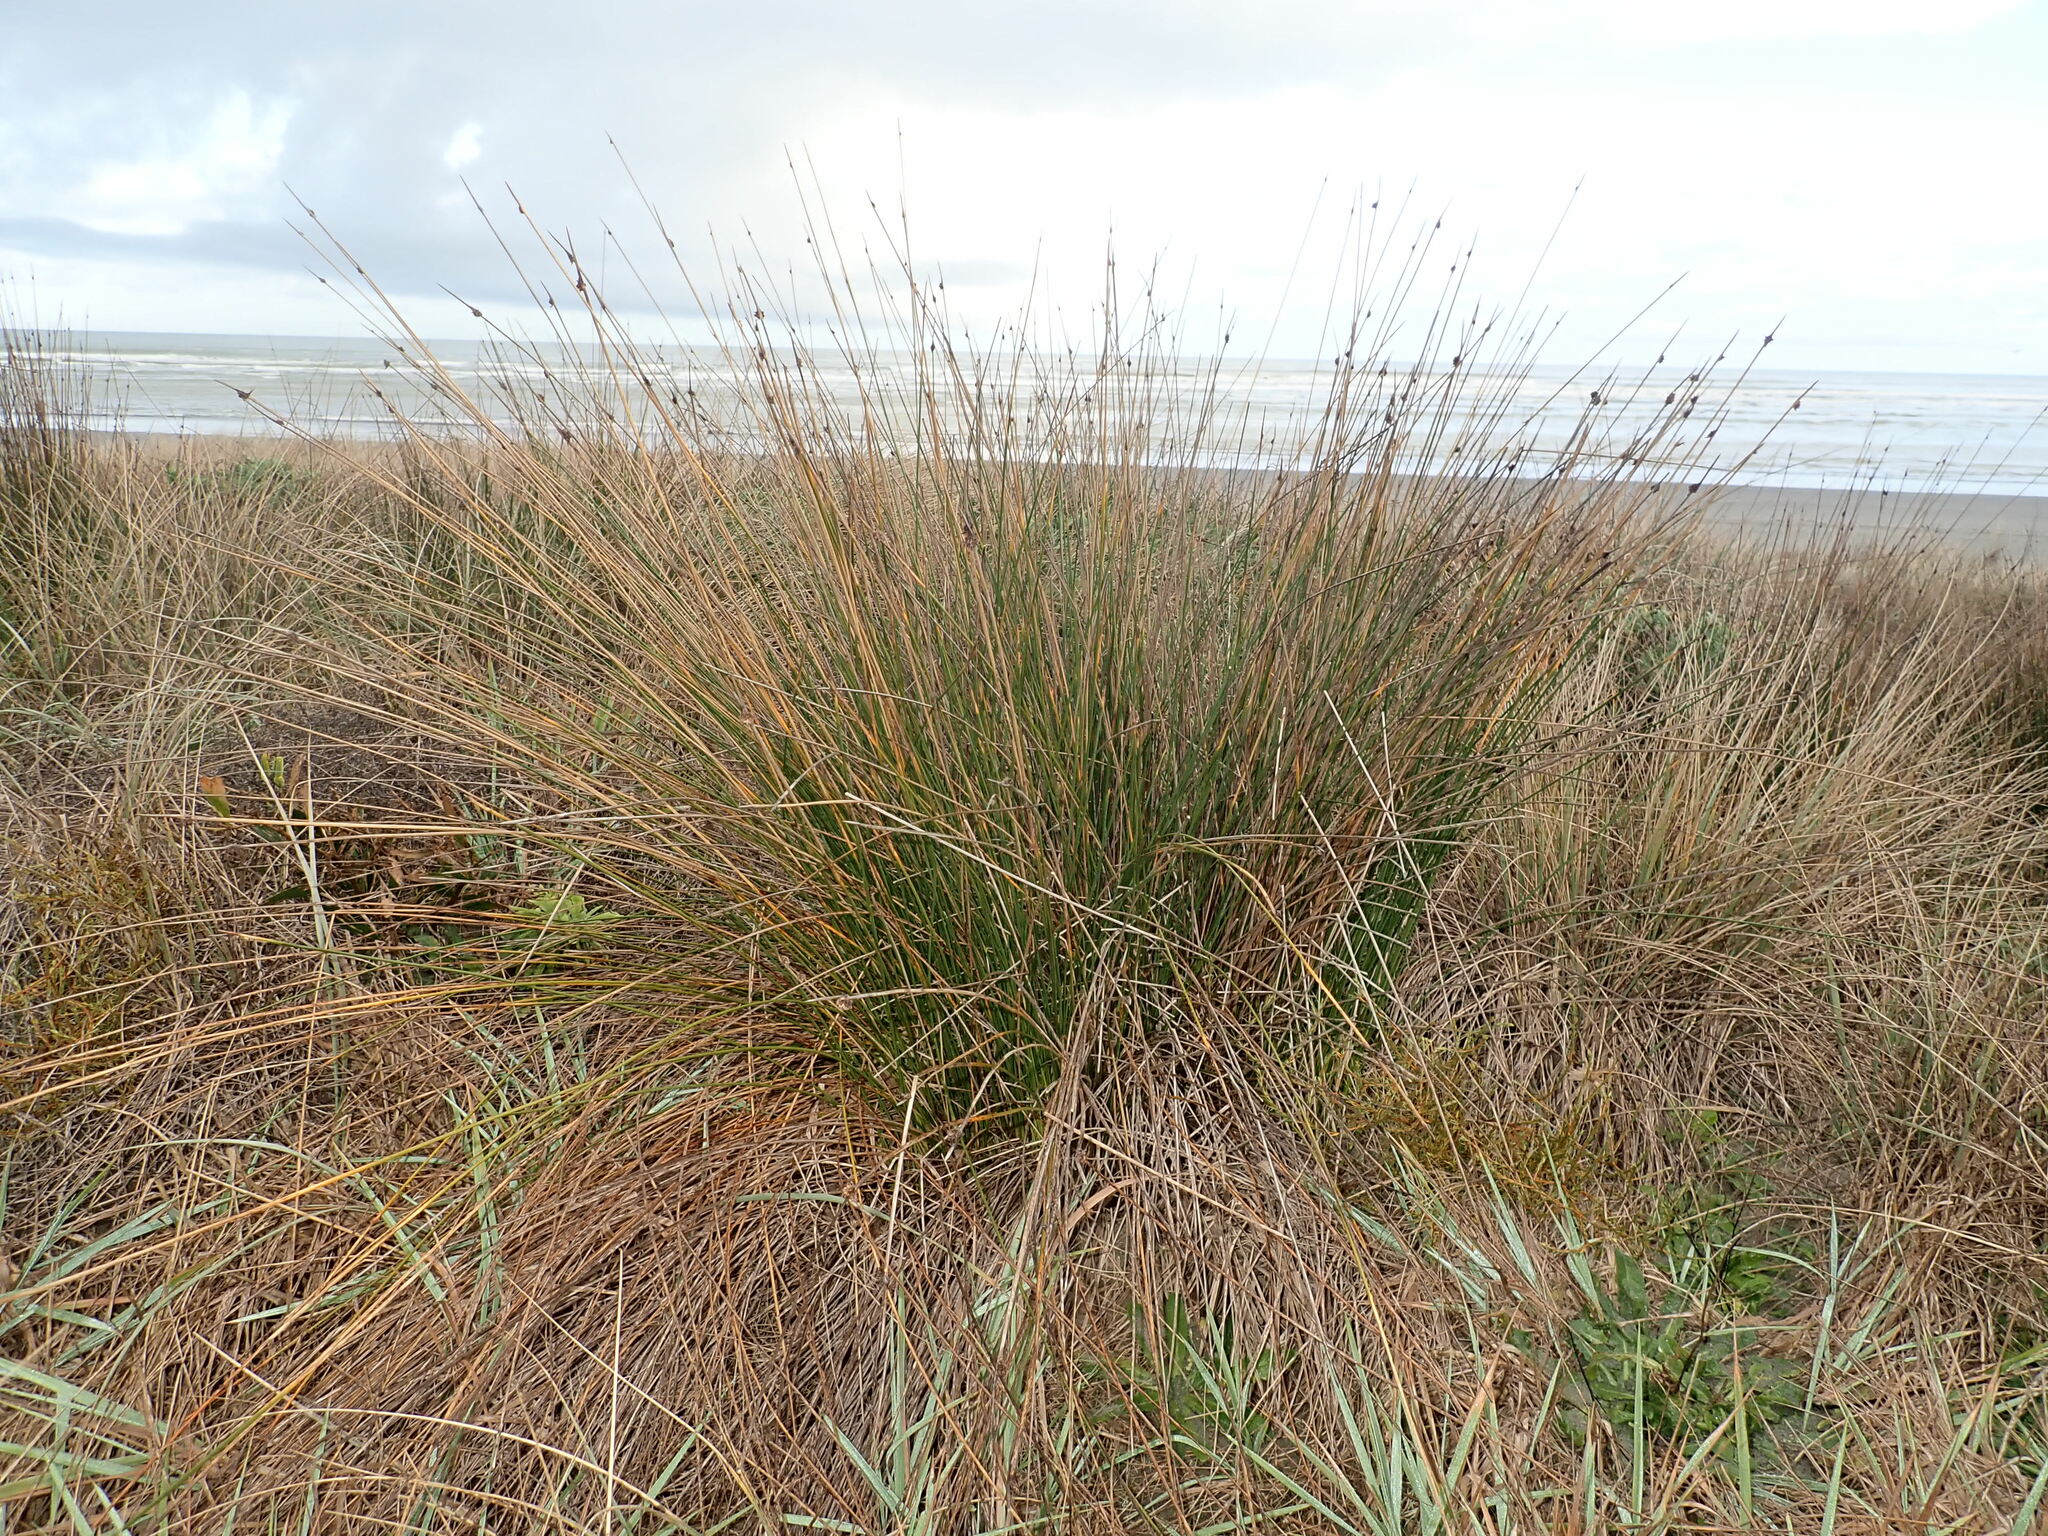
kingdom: Plantae
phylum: Tracheophyta
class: Liliopsida
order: Poales
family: Cyperaceae
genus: Ficinia
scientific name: Ficinia nodosa
